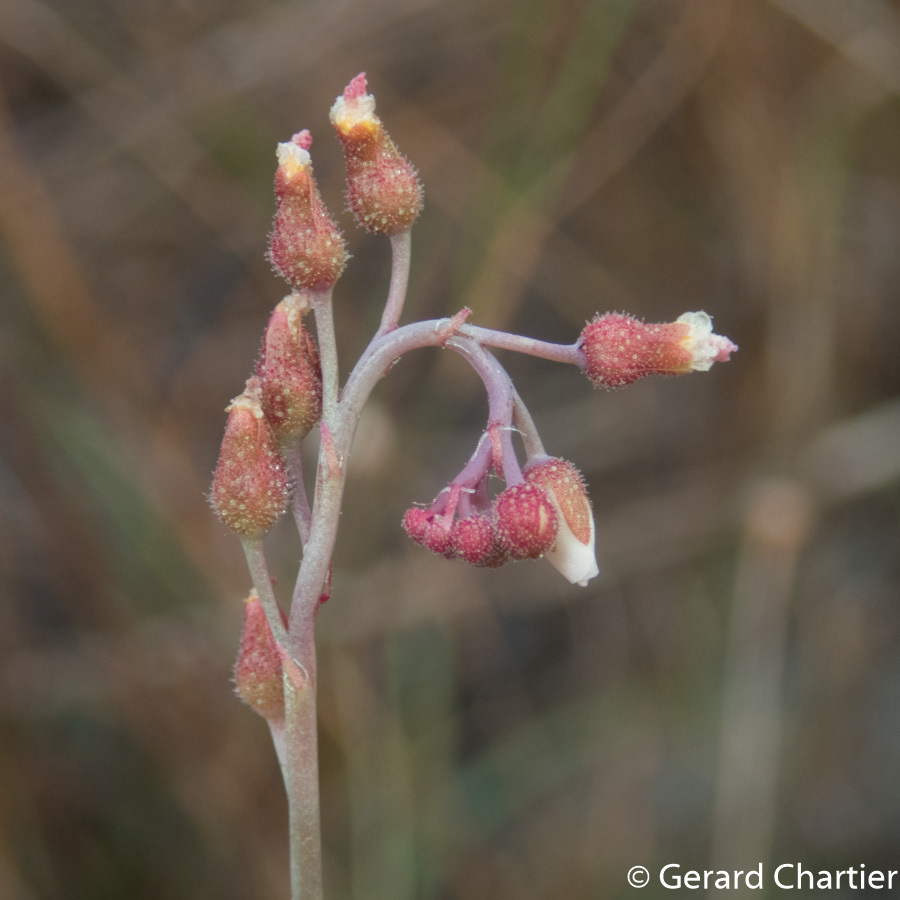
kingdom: Plantae
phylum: Tracheophyta
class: Magnoliopsida
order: Caryophyllales
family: Droseraceae
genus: Drosera
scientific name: Drosera spatulata
